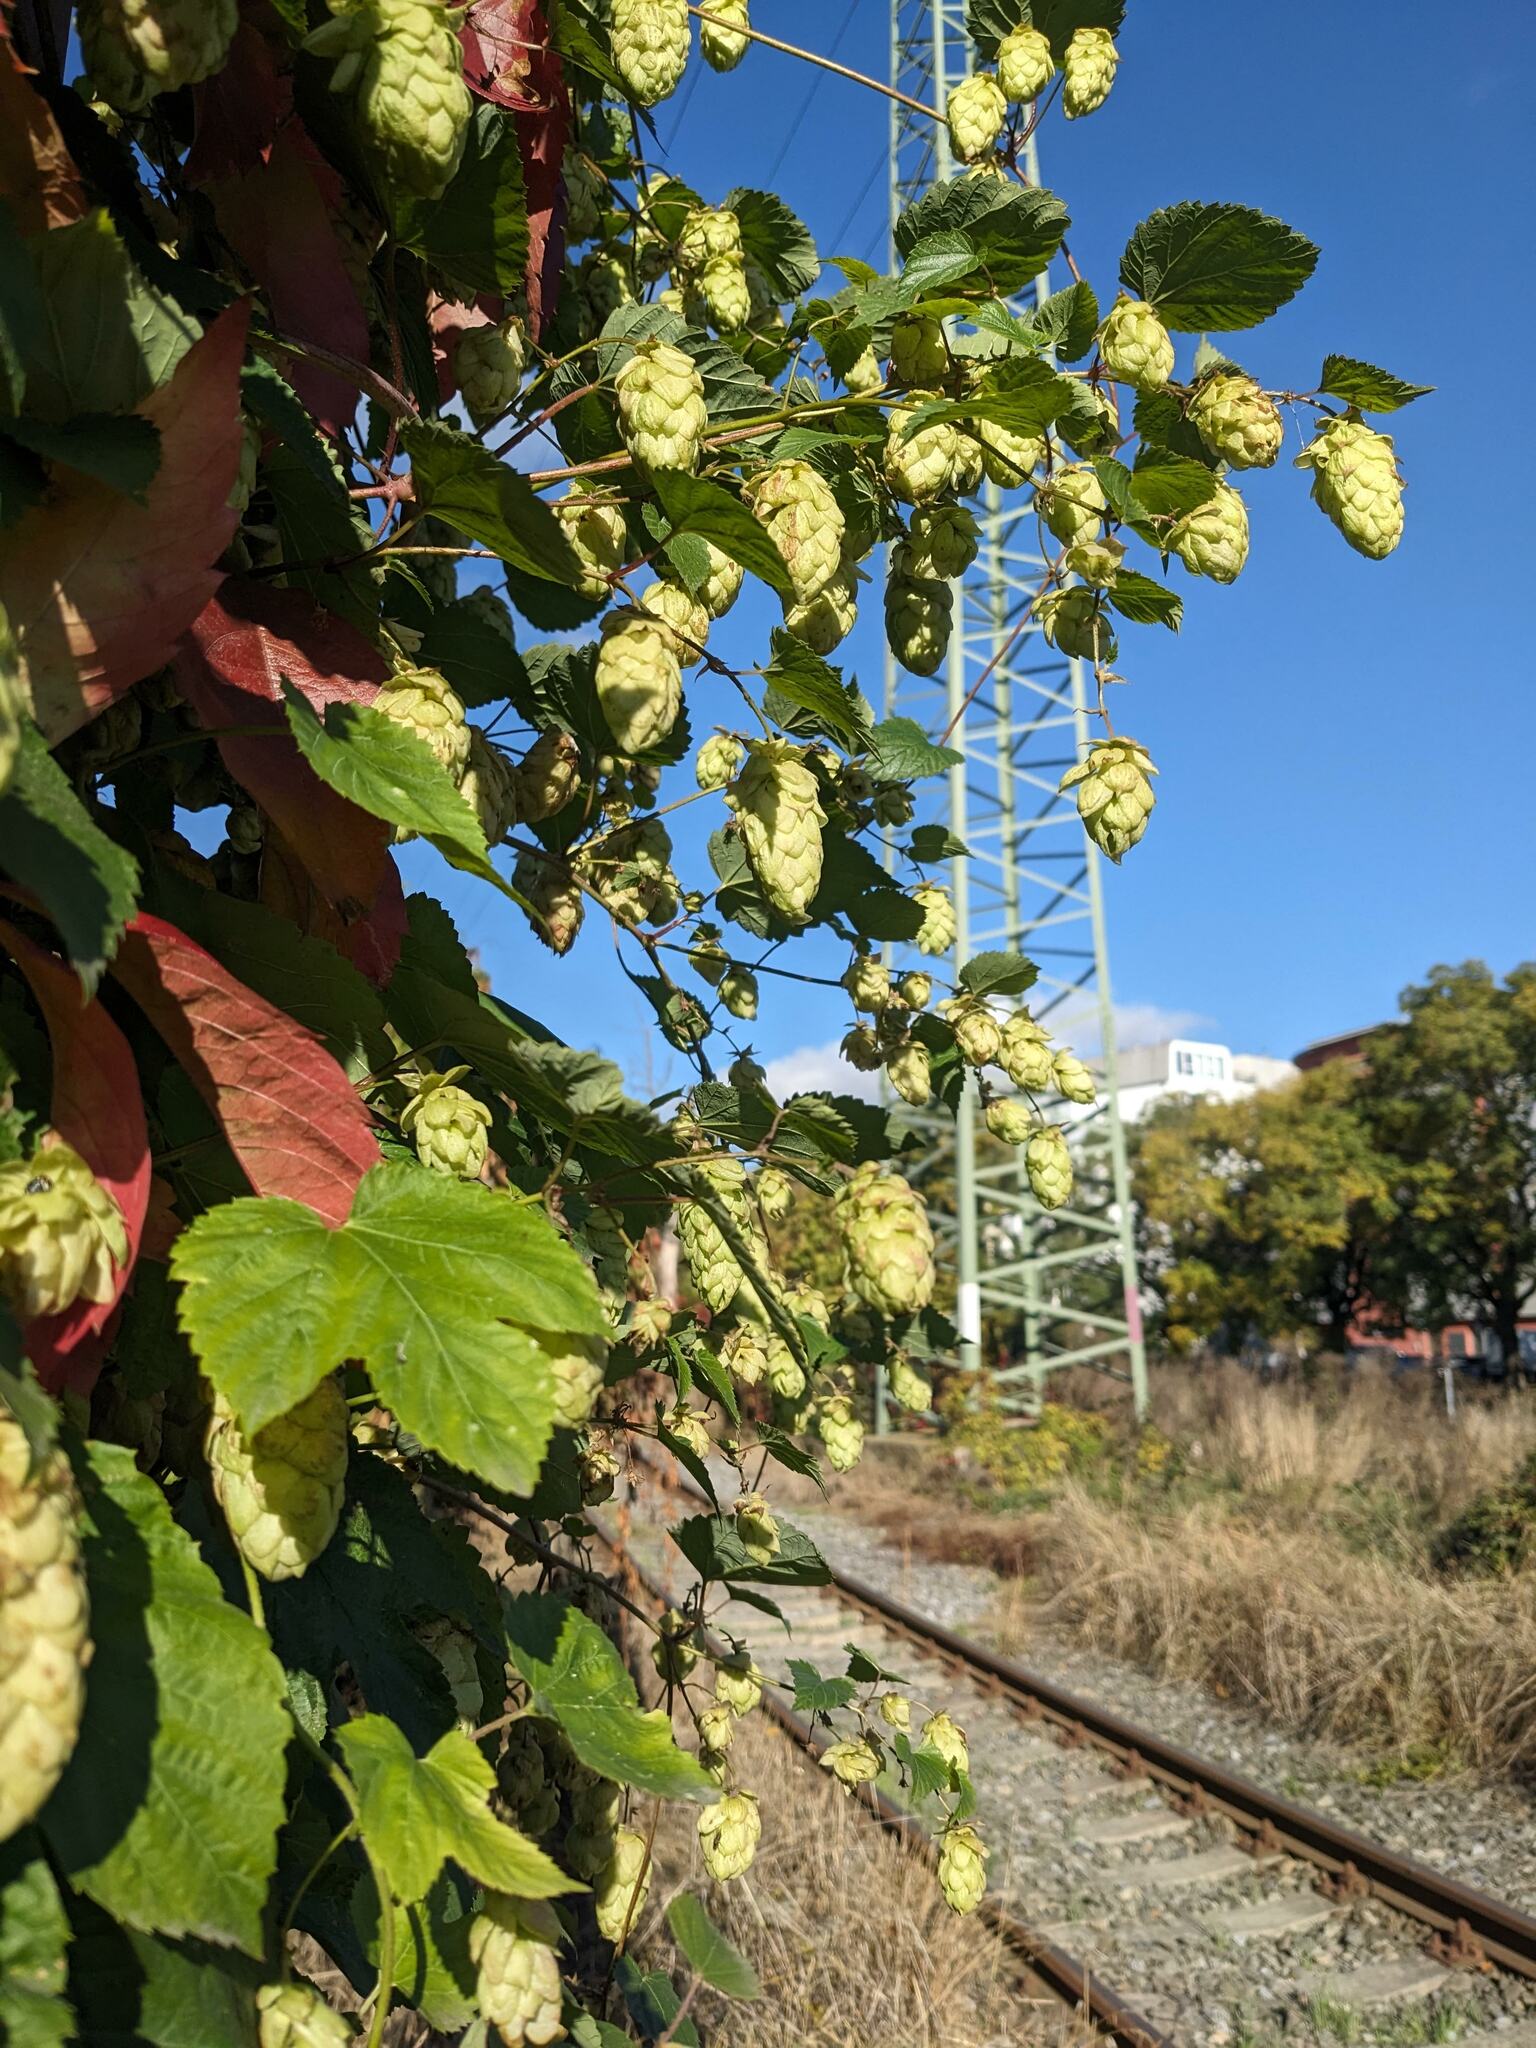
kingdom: Plantae
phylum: Tracheophyta
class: Magnoliopsida
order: Rosales
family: Cannabaceae
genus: Humulus
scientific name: Humulus lupulus
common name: Hop
